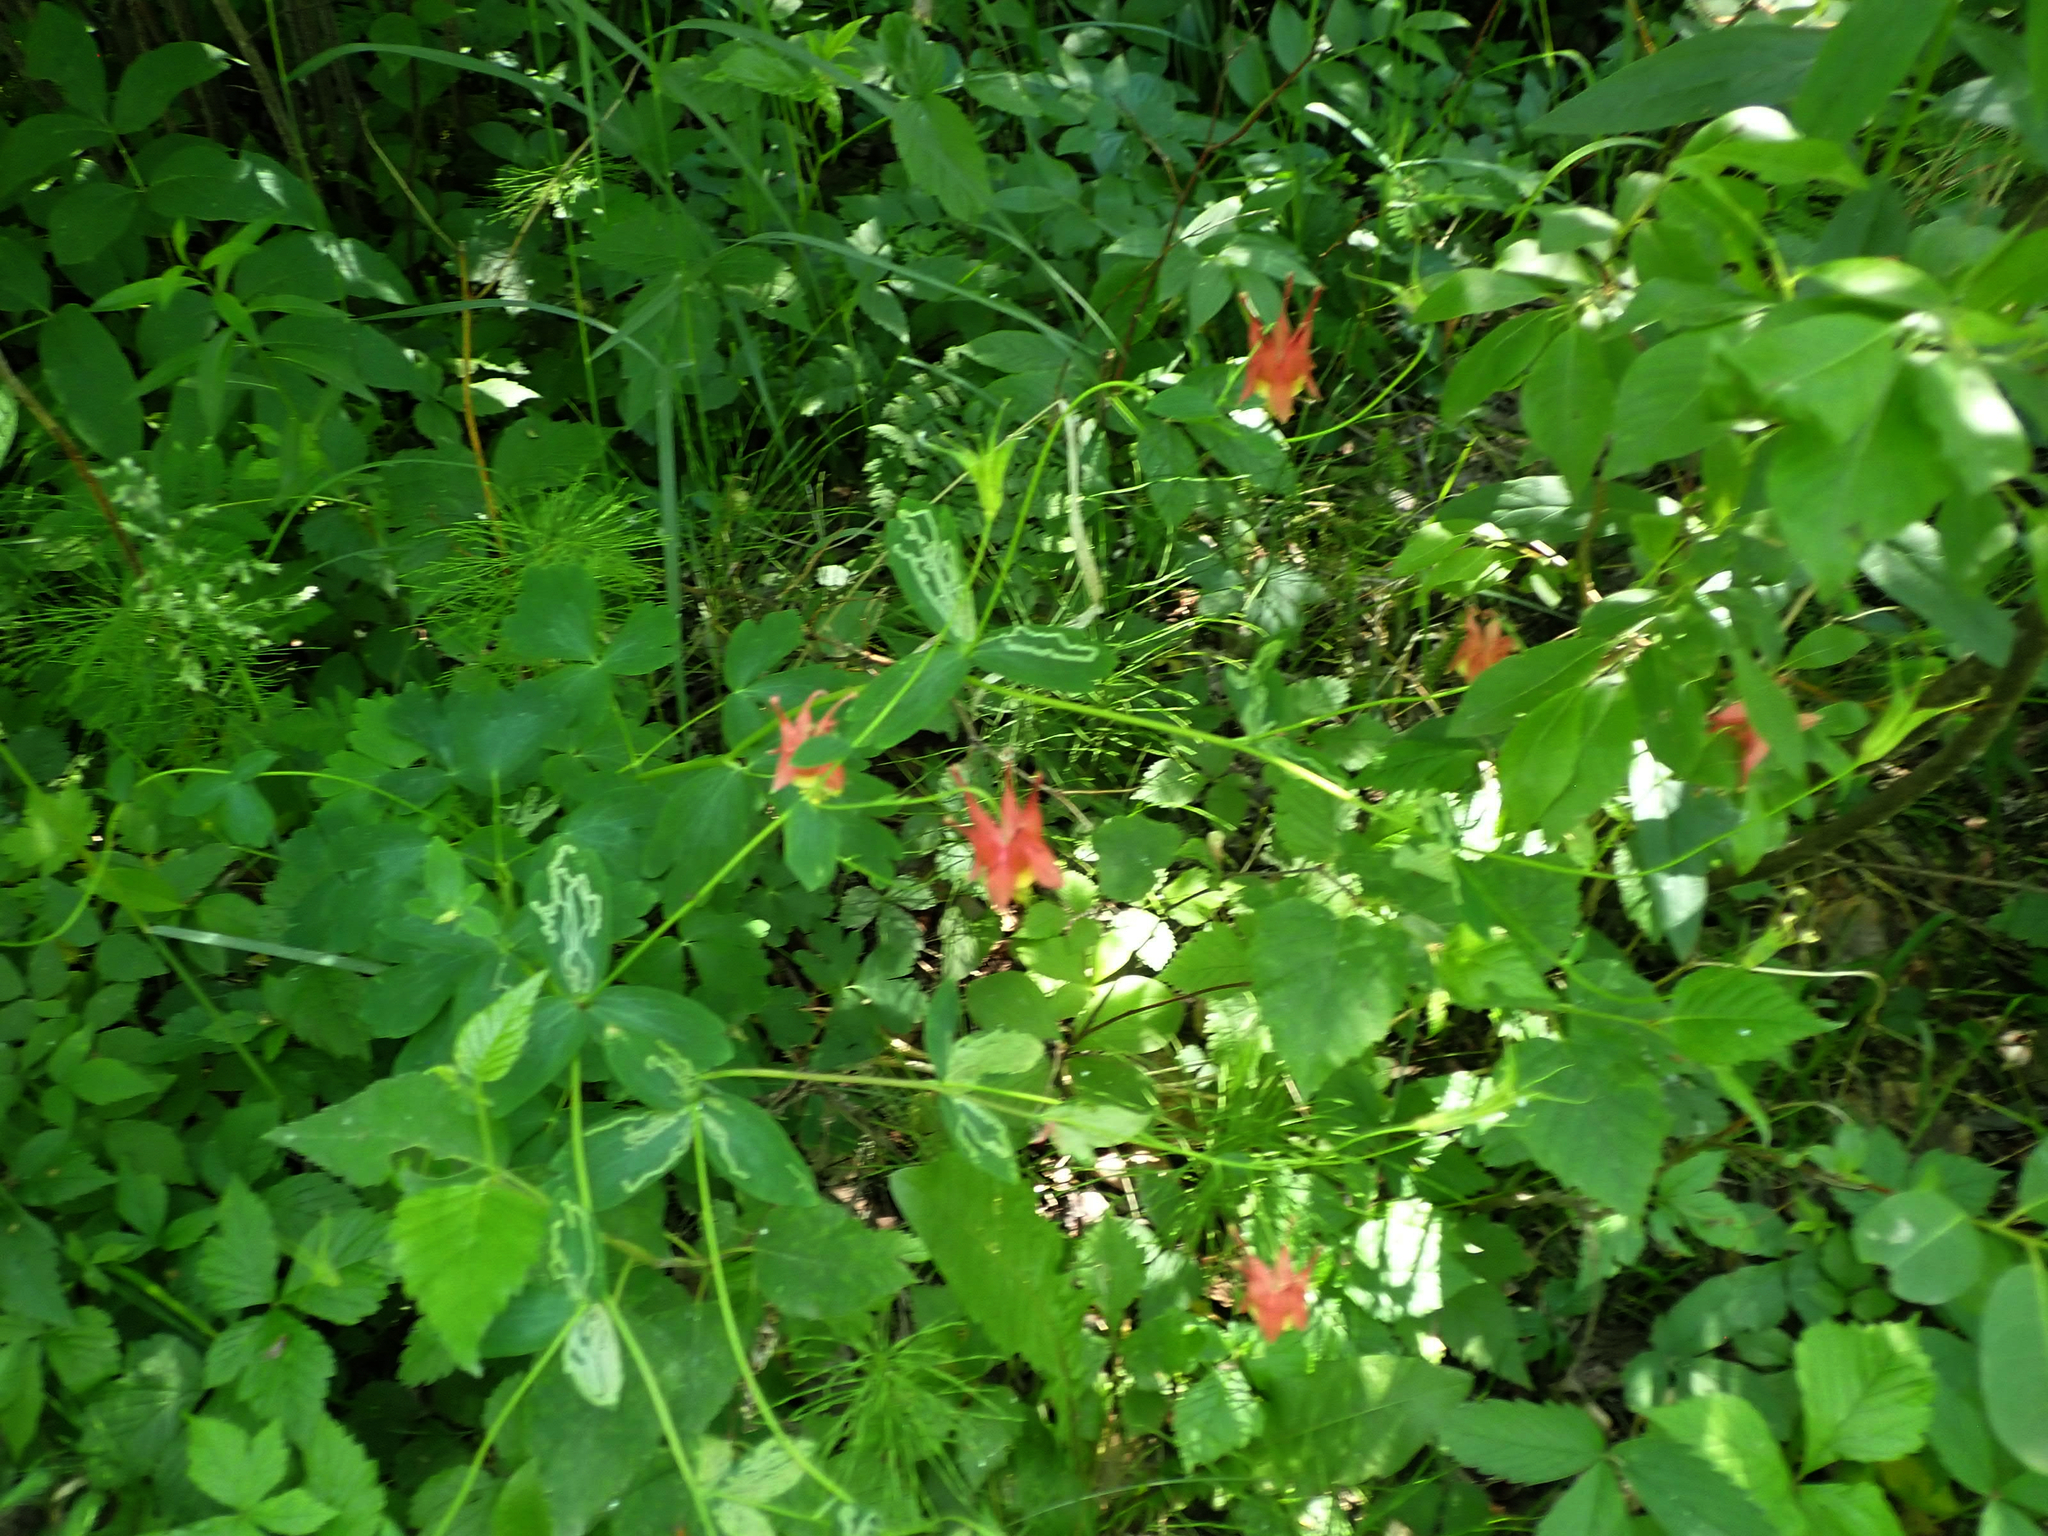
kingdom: Plantae
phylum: Tracheophyta
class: Magnoliopsida
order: Ranunculales
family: Ranunculaceae
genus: Aquilegia
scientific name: Aquilegia canadensis
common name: American columbine
